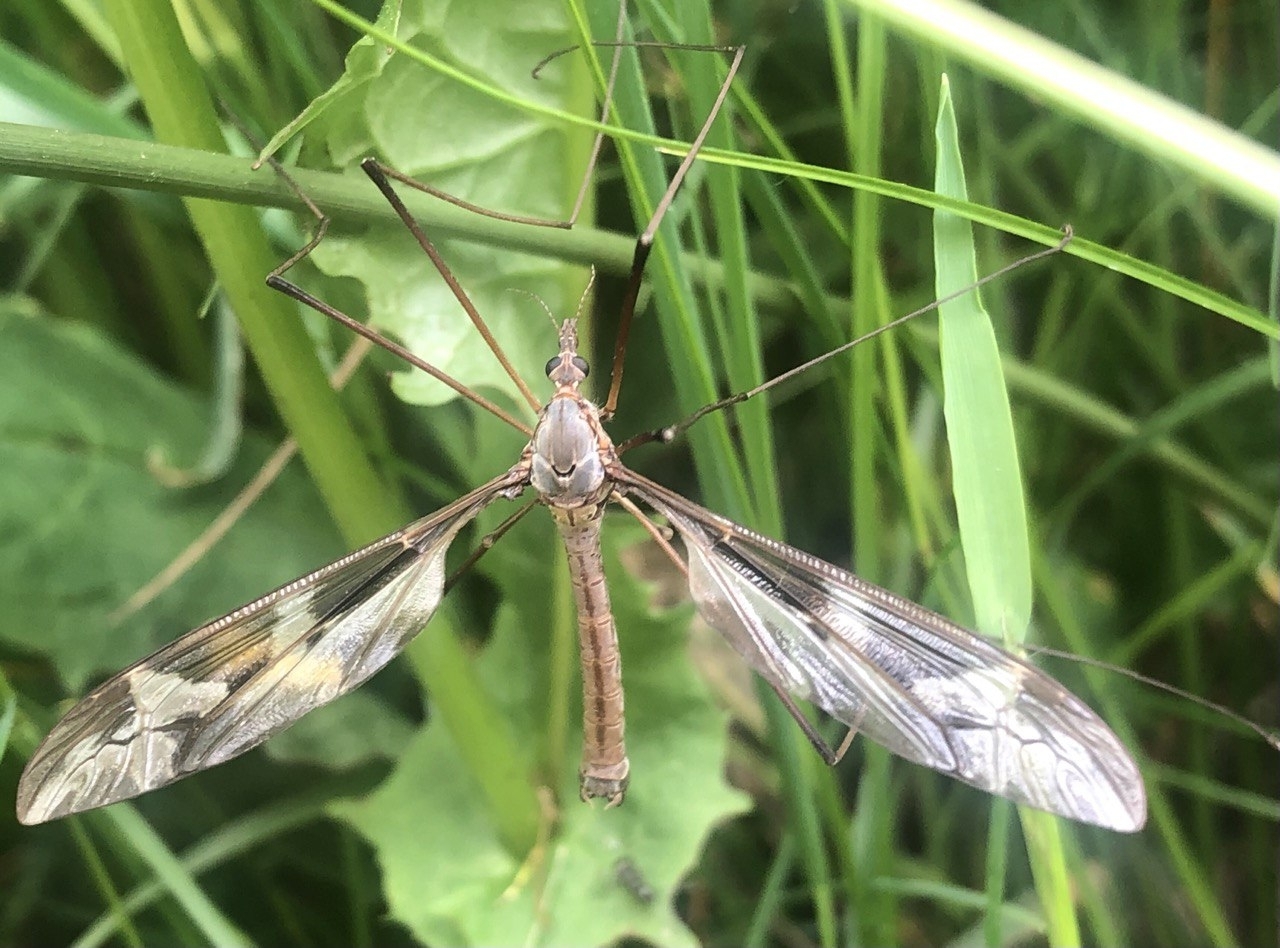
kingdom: Animalia
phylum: Arthropoda
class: Insecta
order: Diptera
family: Tipulidae
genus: Tipula
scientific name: Tipula maxima
